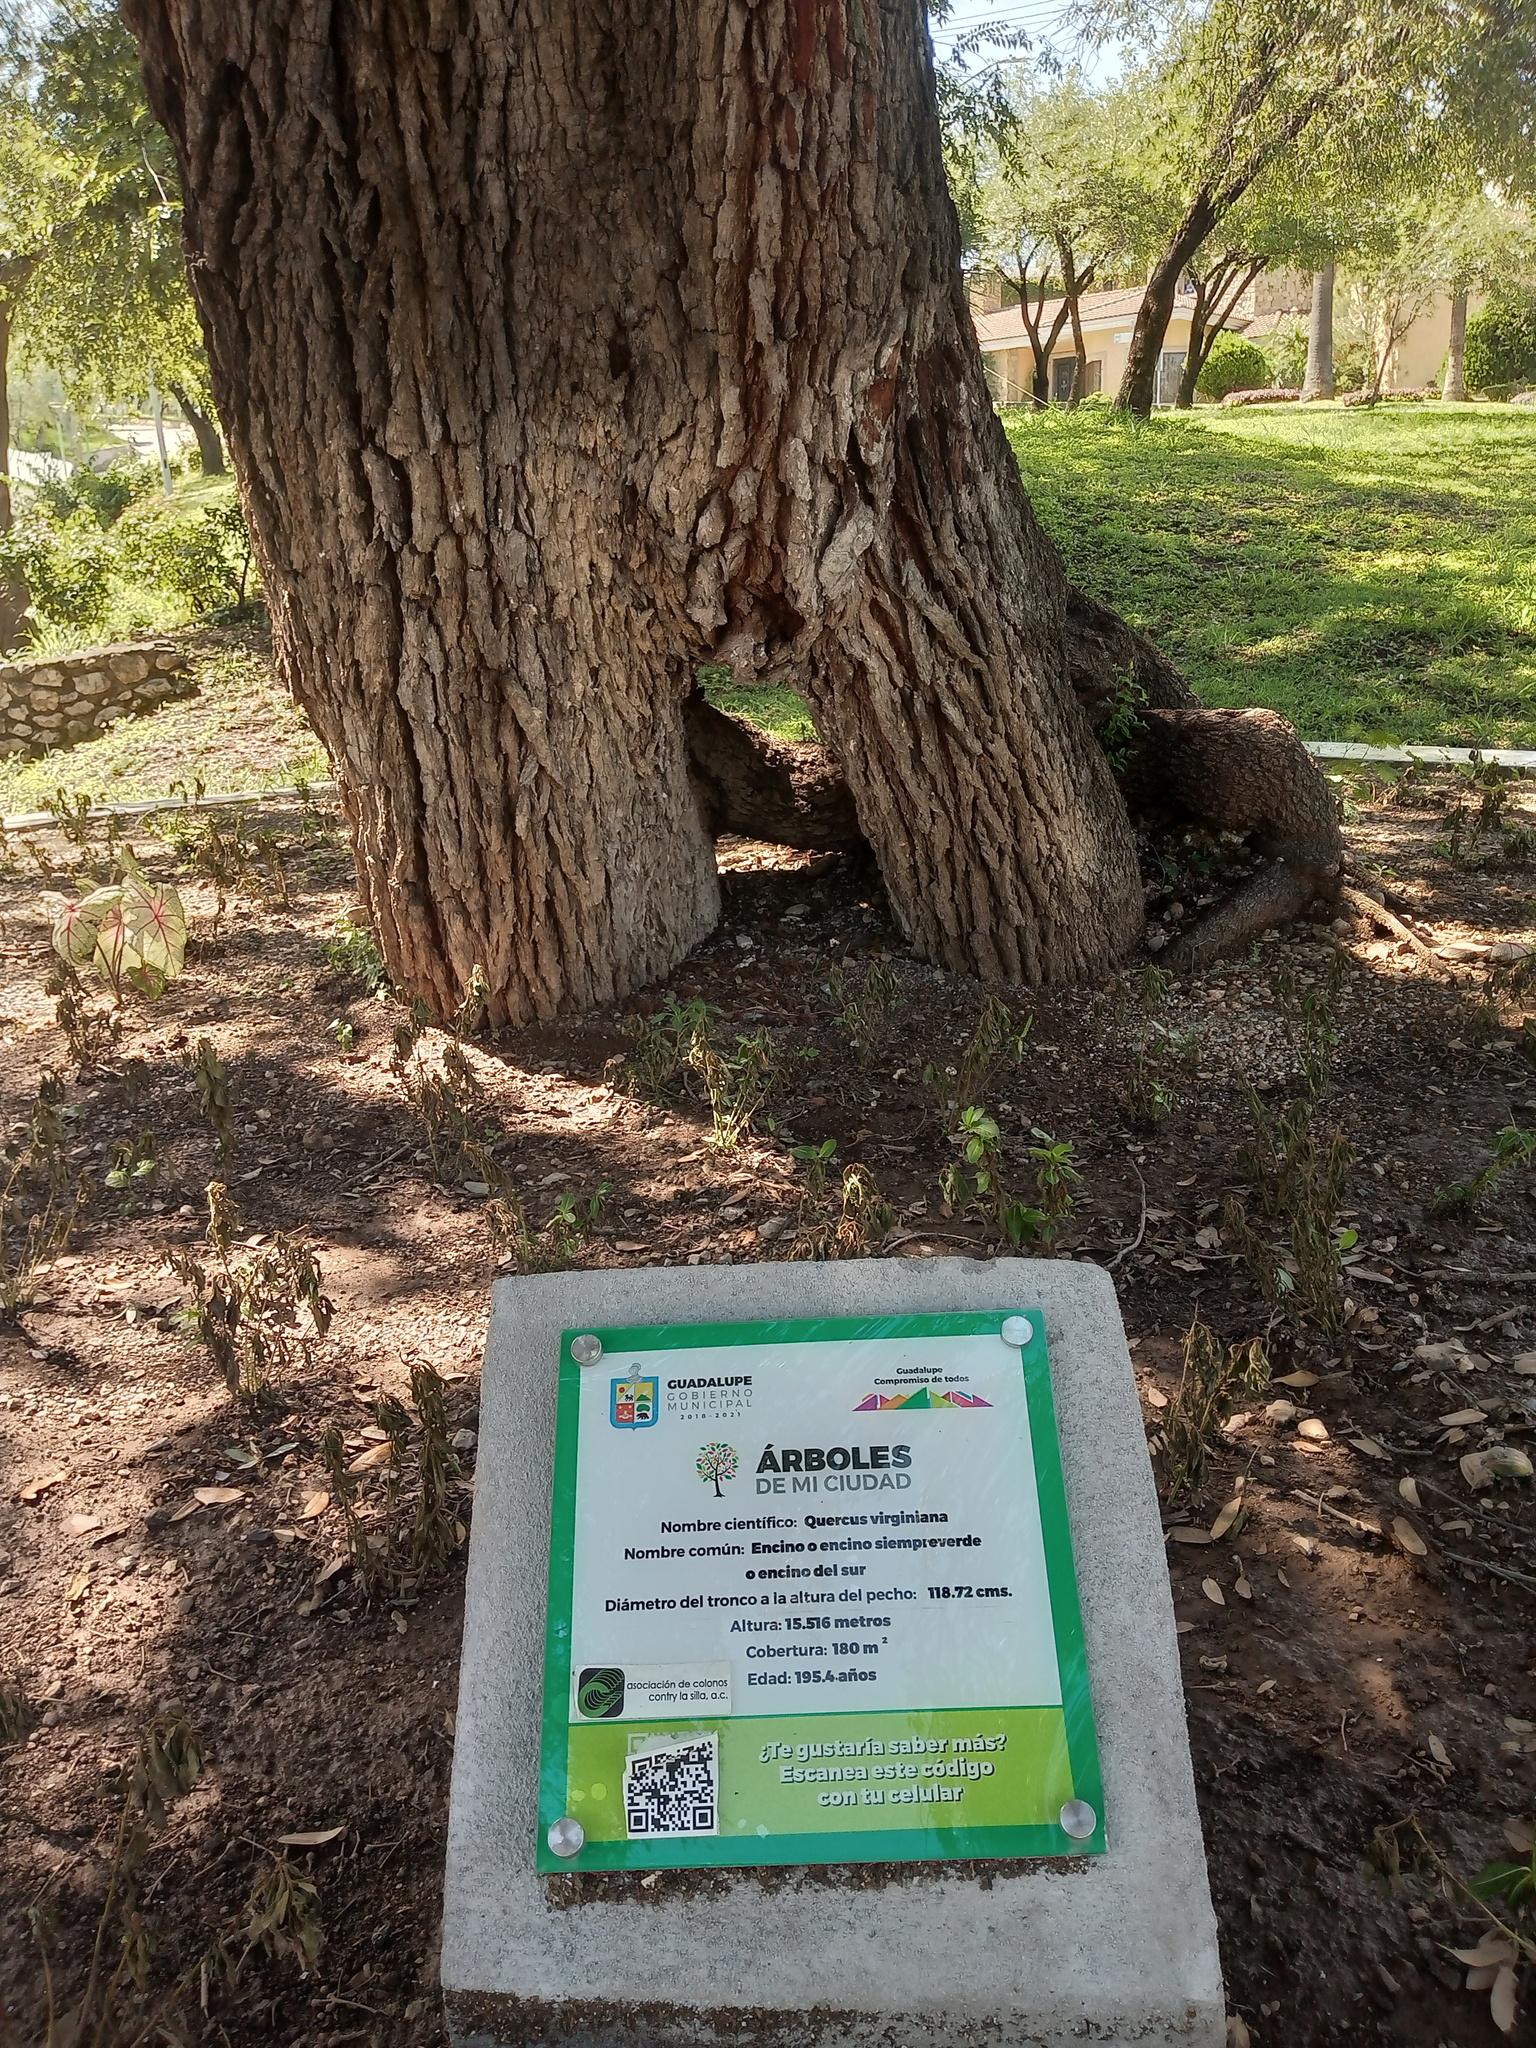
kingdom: Plantae
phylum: Tracheophyta
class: Magnoliopsida
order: Fagales
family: Fagaceae
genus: Quercus
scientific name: Quercus fusiformis
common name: Texas live oak
